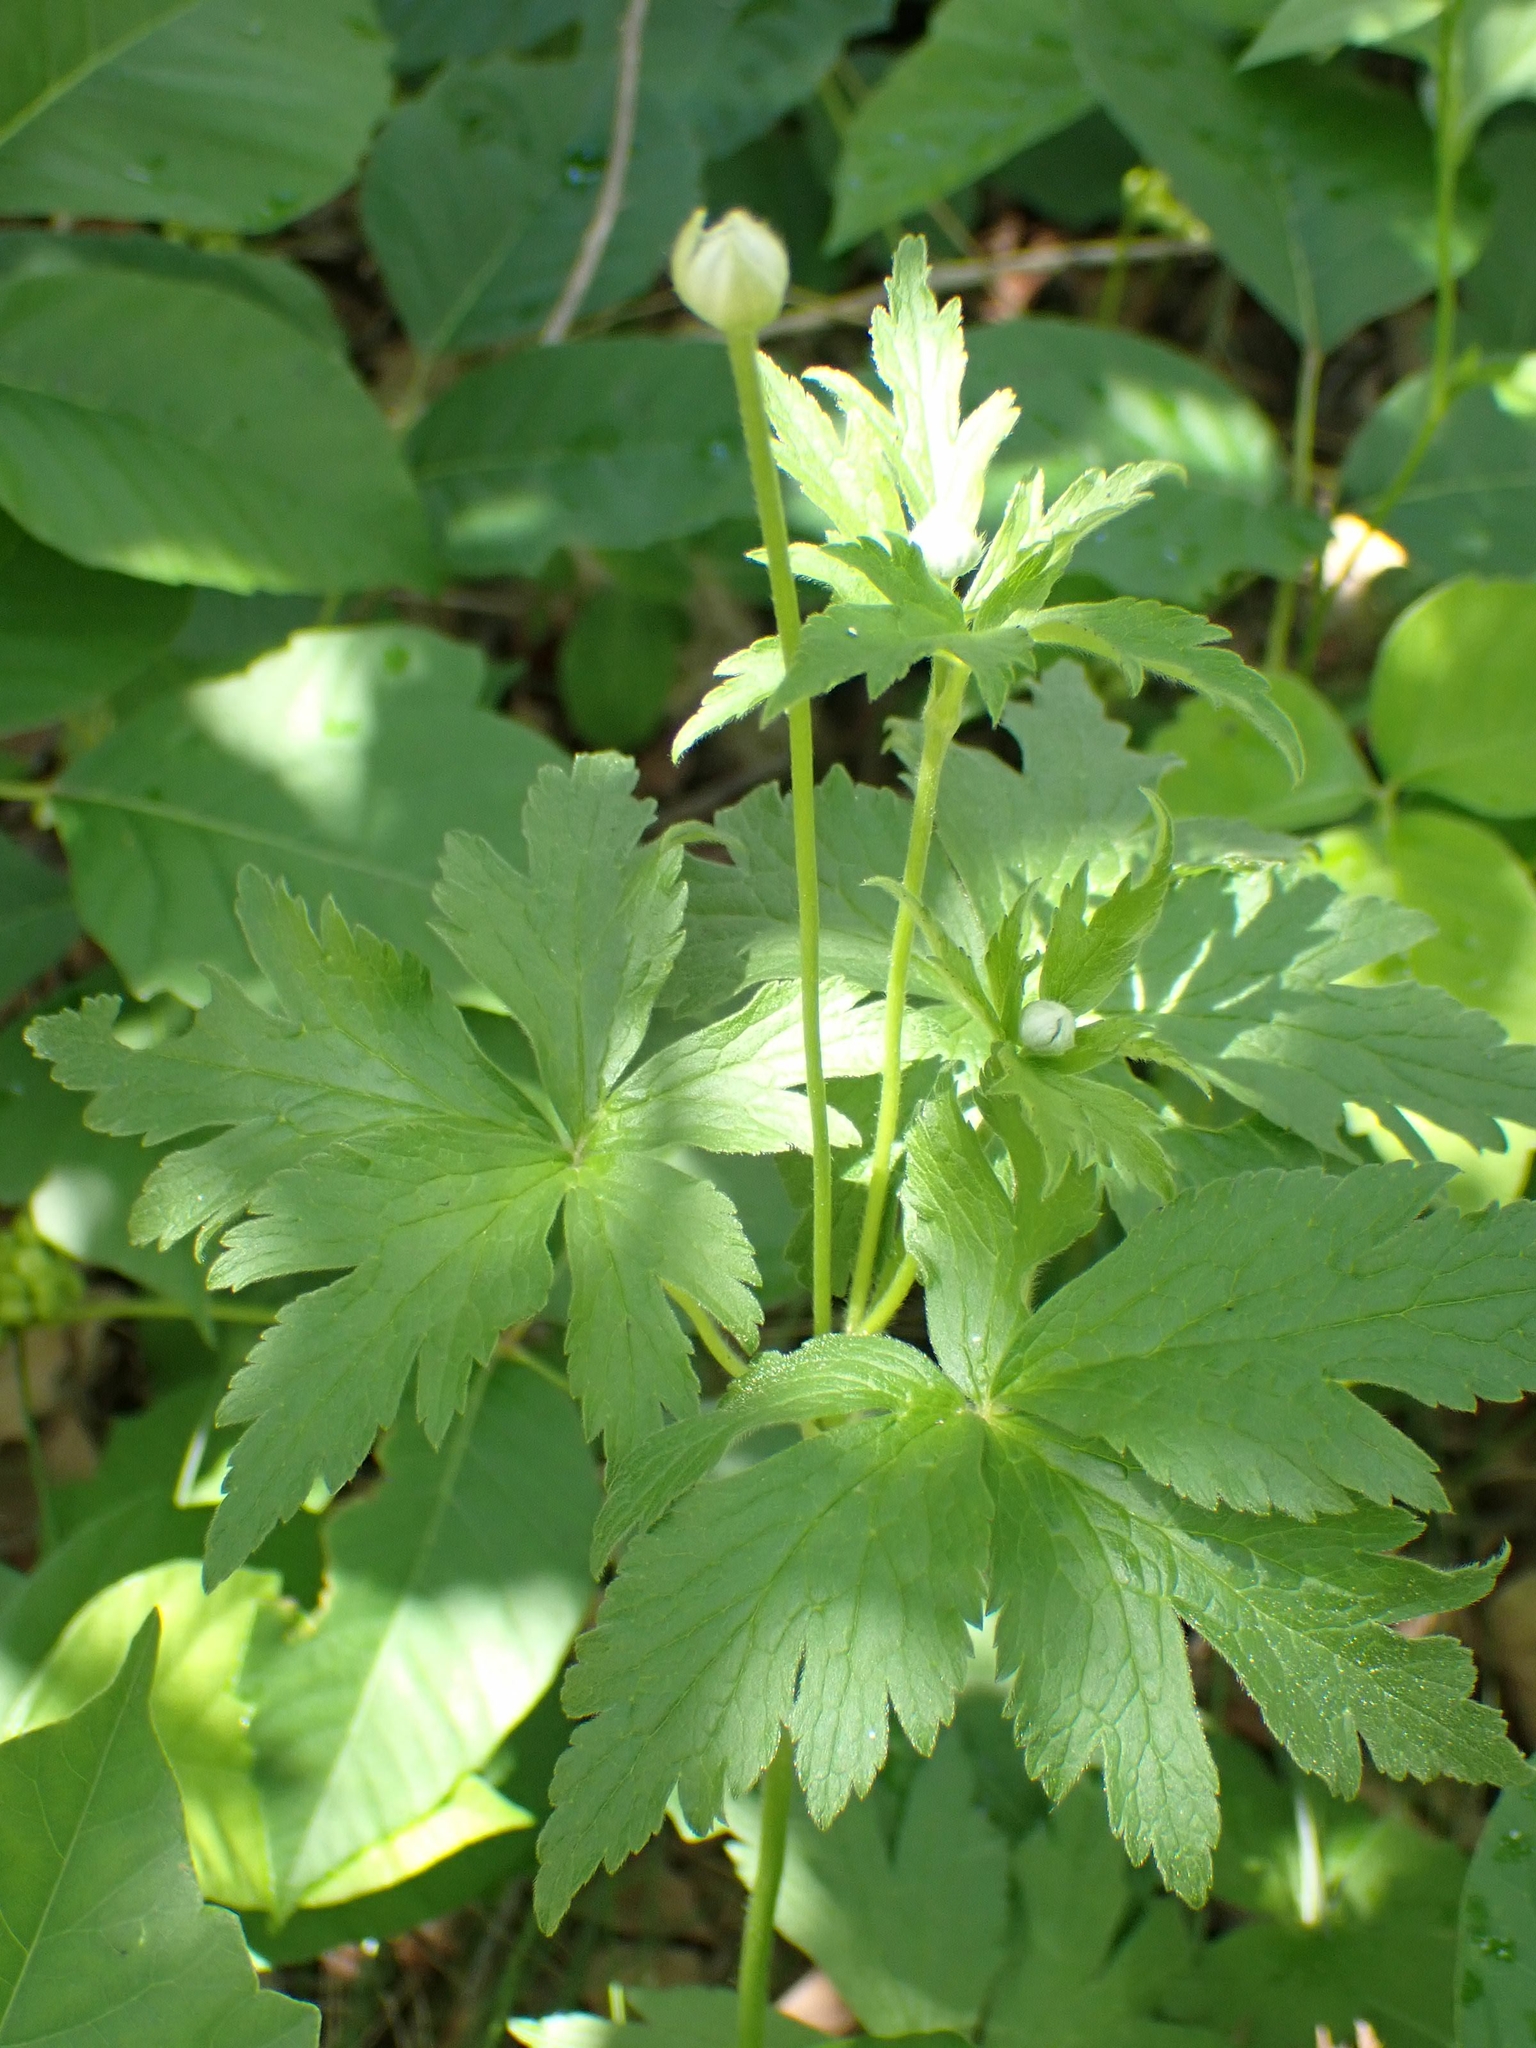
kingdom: Plantae
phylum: Tracheophyta
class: Magnoliopsida
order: Ranunculales
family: Ranunculaceae
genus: Anemone
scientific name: Anemone virginiana
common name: Tall anemone
